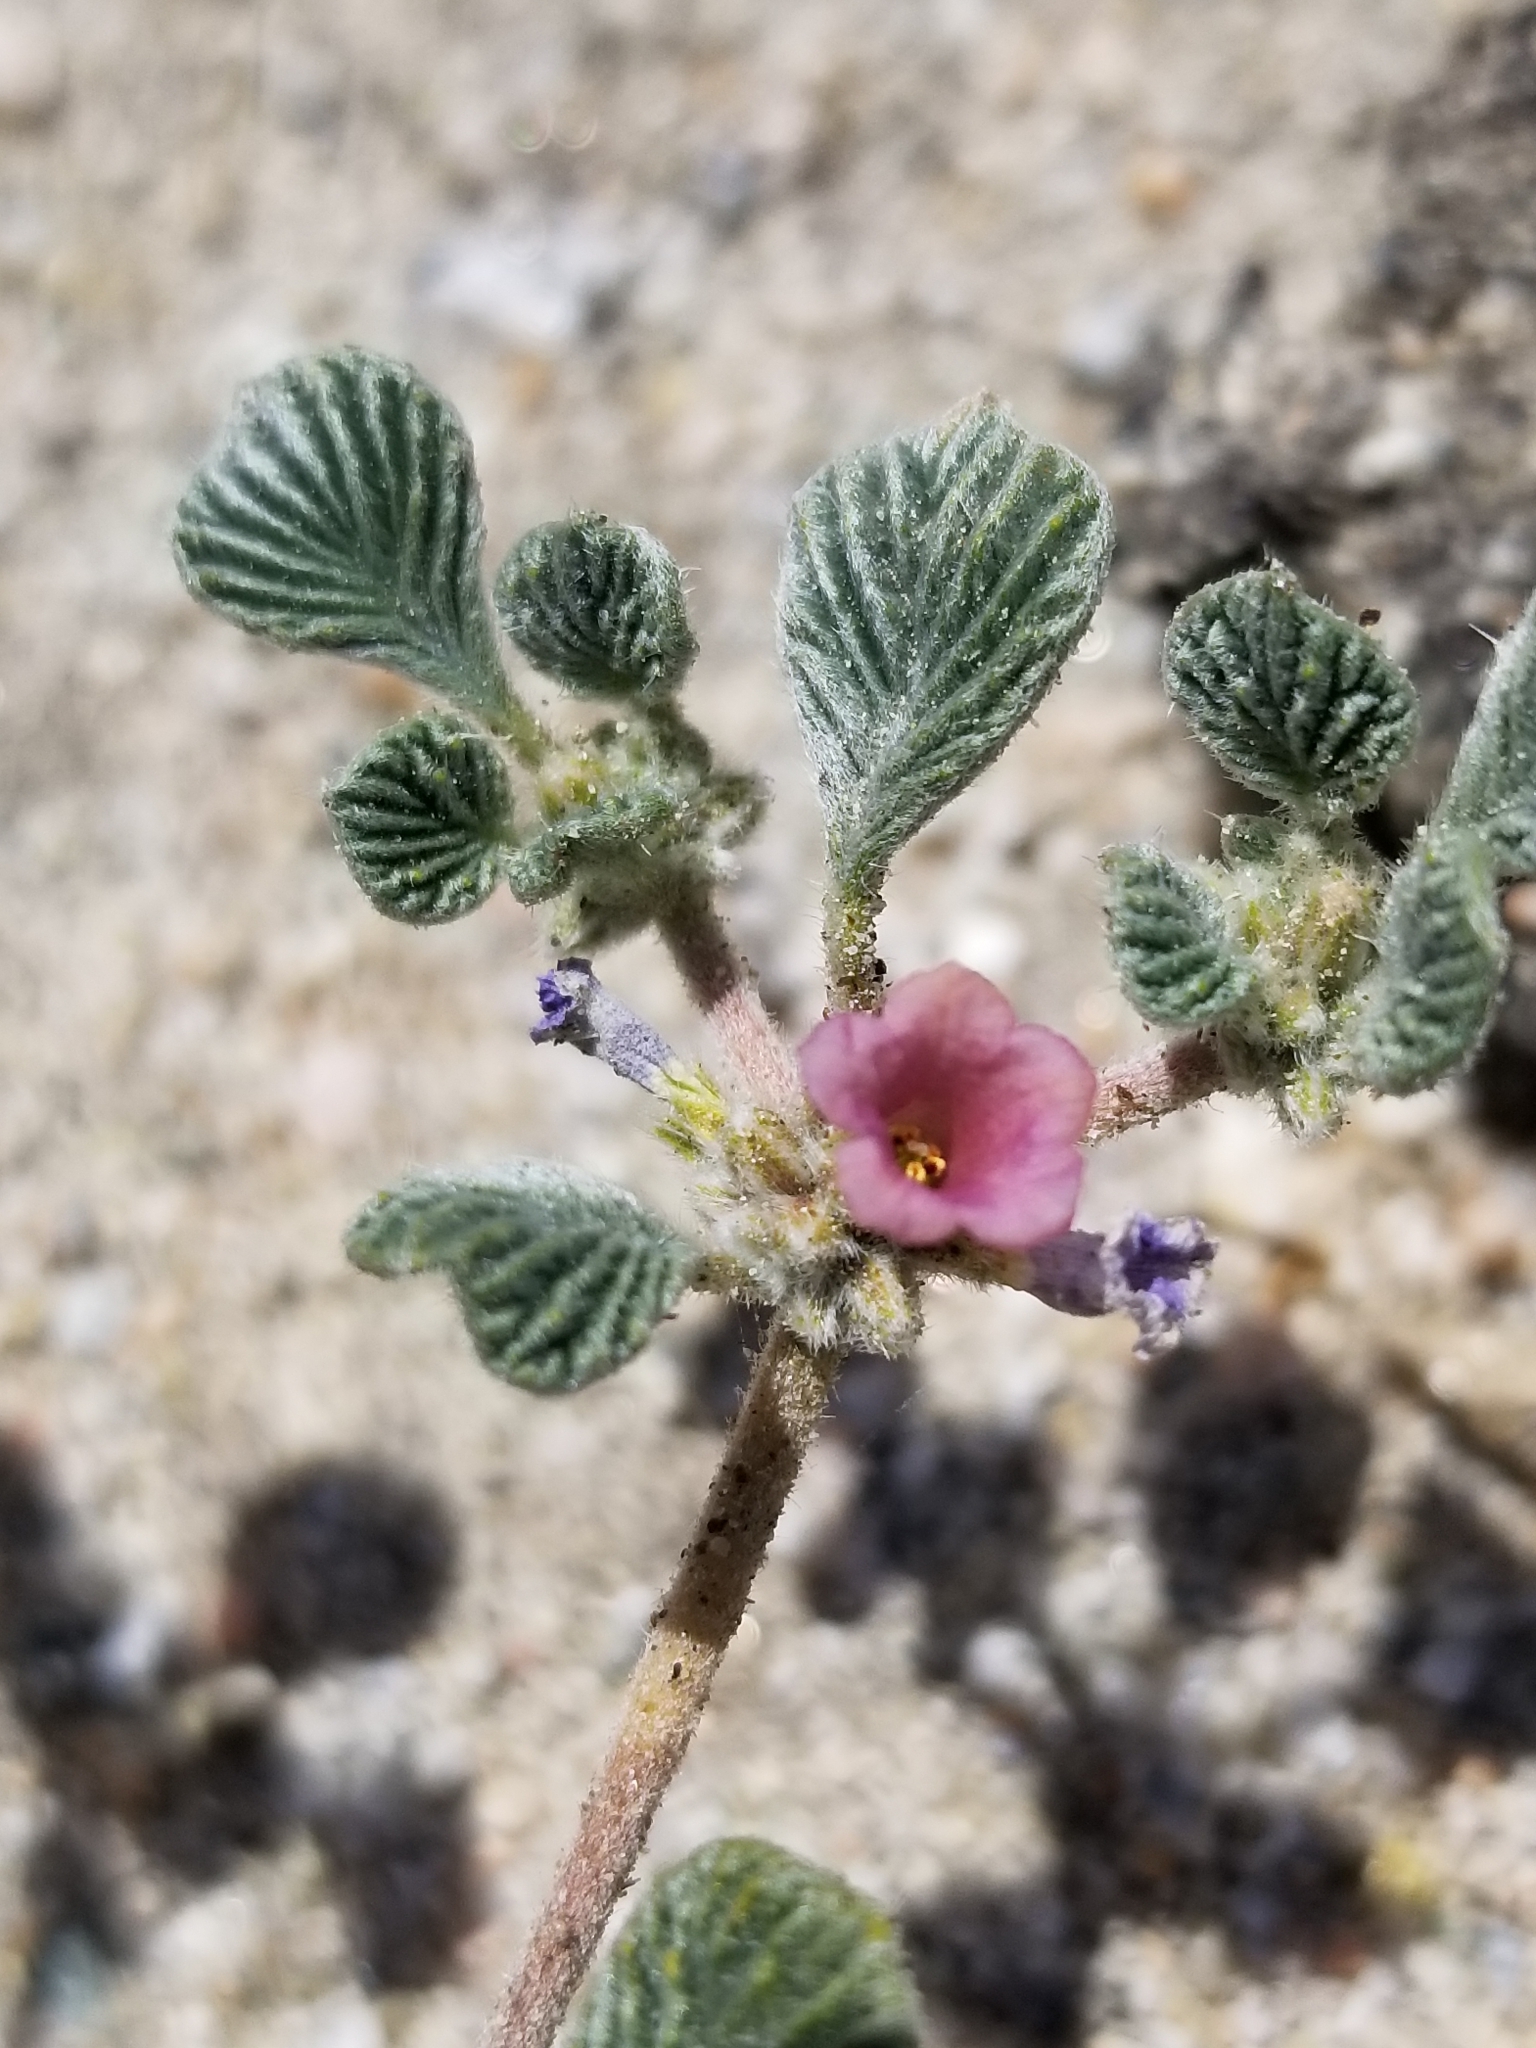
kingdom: Plantae
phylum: Tracheophyta
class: Magnoliopsida
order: Boraginales
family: Ehretiaceae
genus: Tiquilia
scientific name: Tiquilia plicata
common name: Fan-leaf tiquilia
